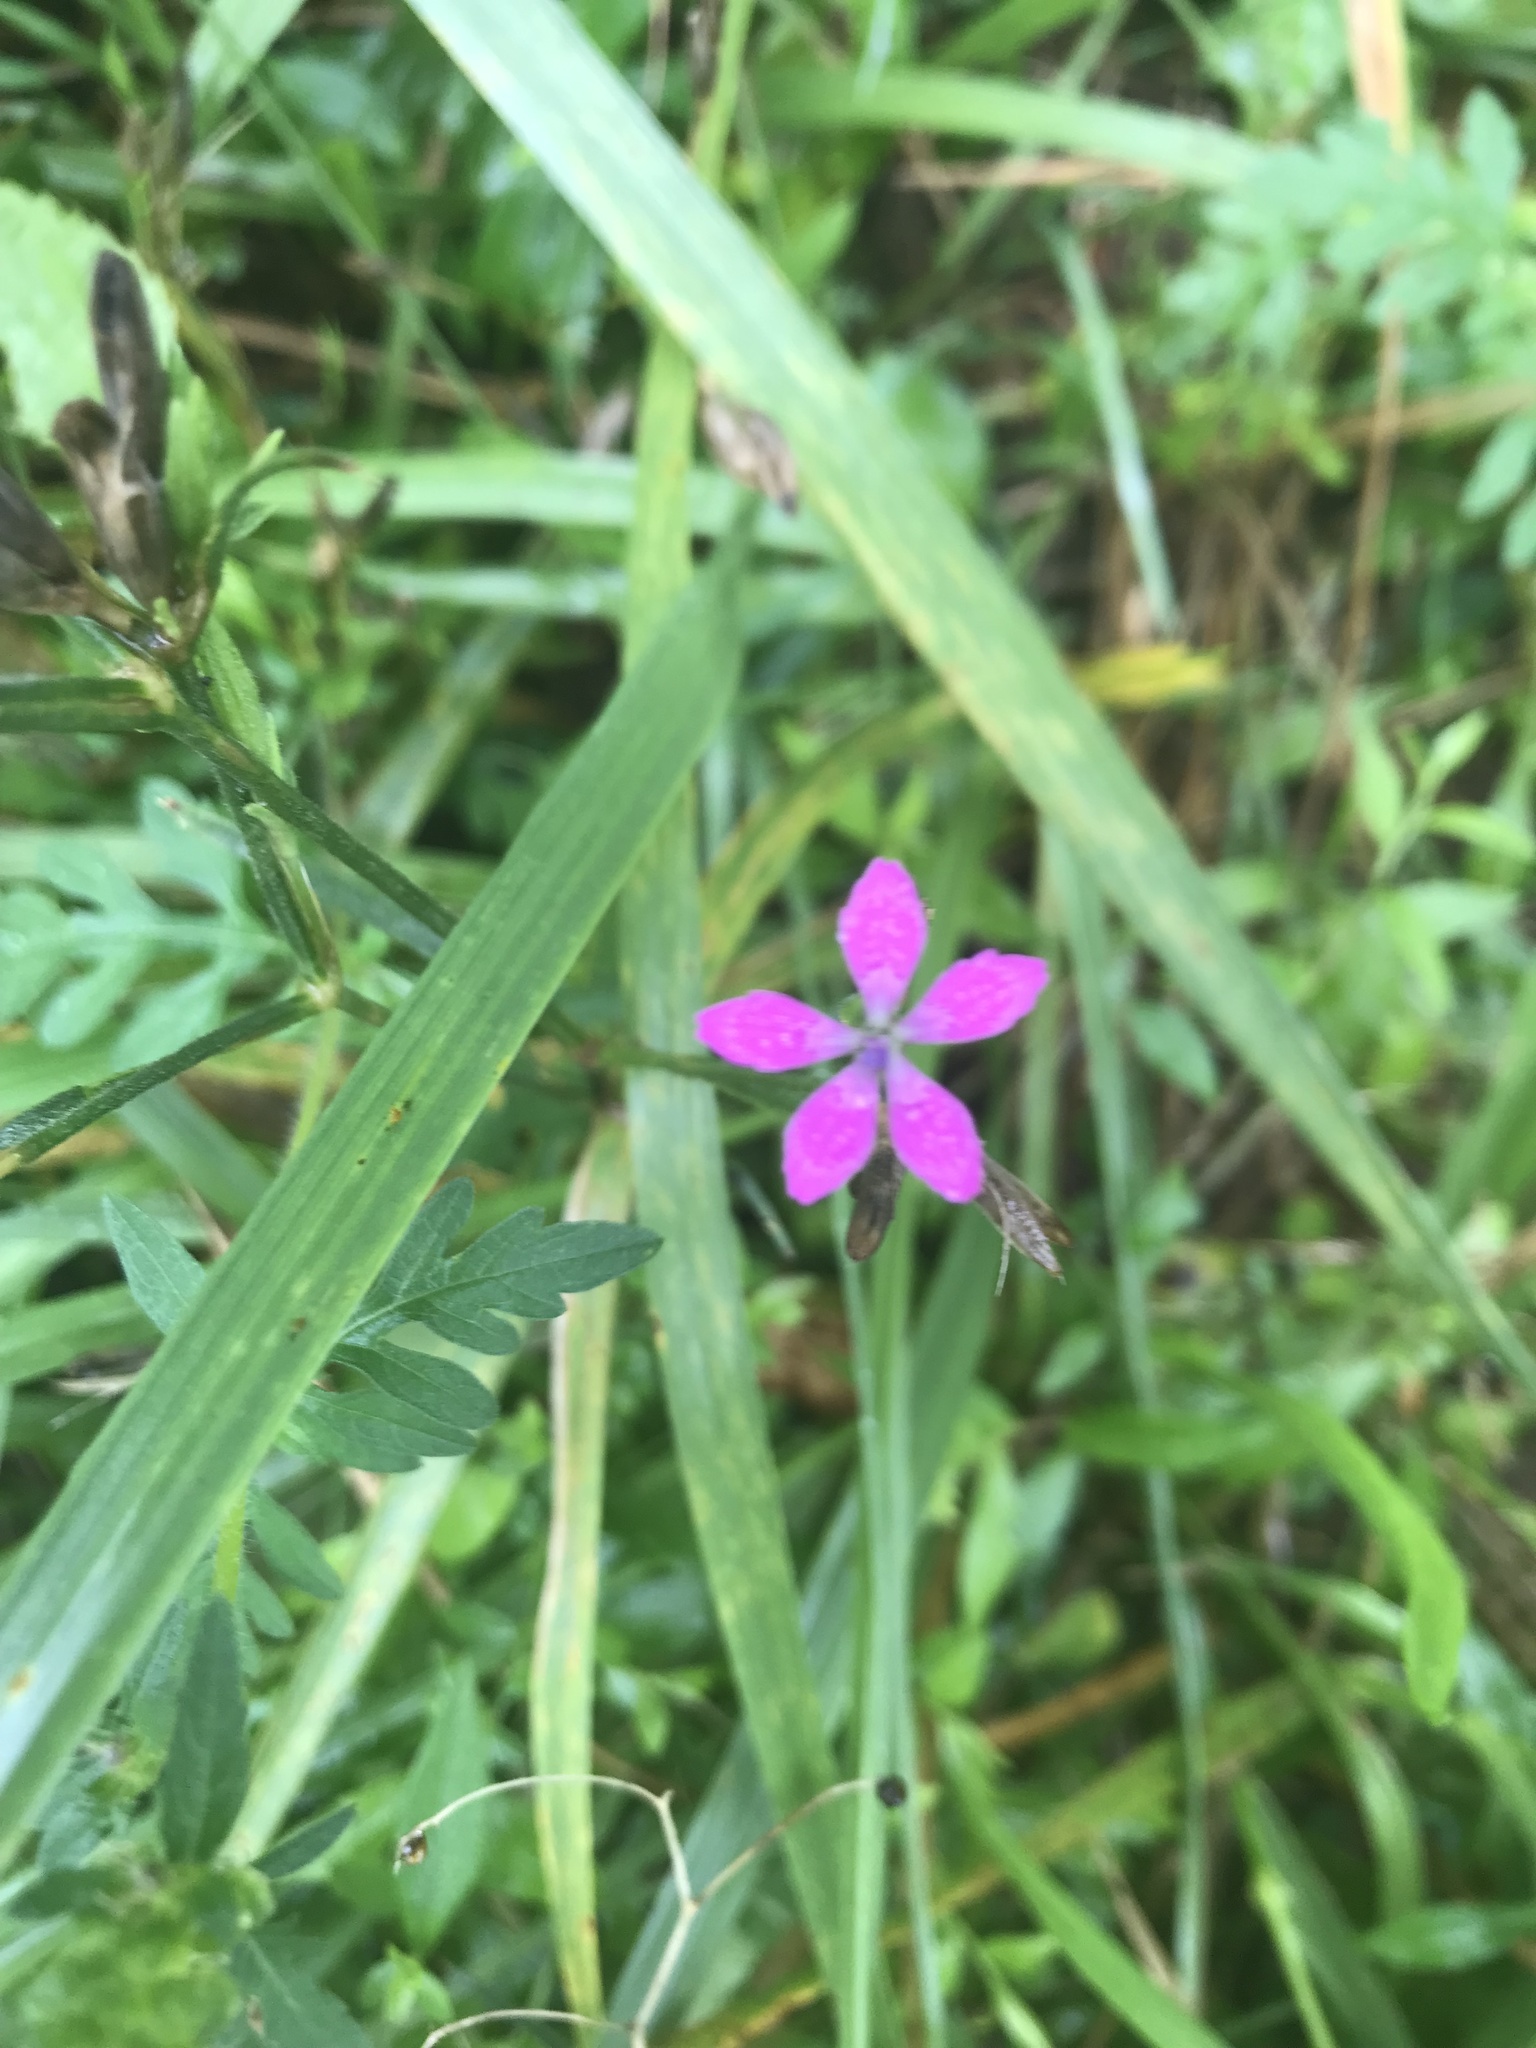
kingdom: Plantae
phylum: Tracheophyta
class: Magnoliopsida
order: Caryophyllales
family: Caryophyllaceae
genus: Dianthus
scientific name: Dianthus armeria
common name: Deptford pink
